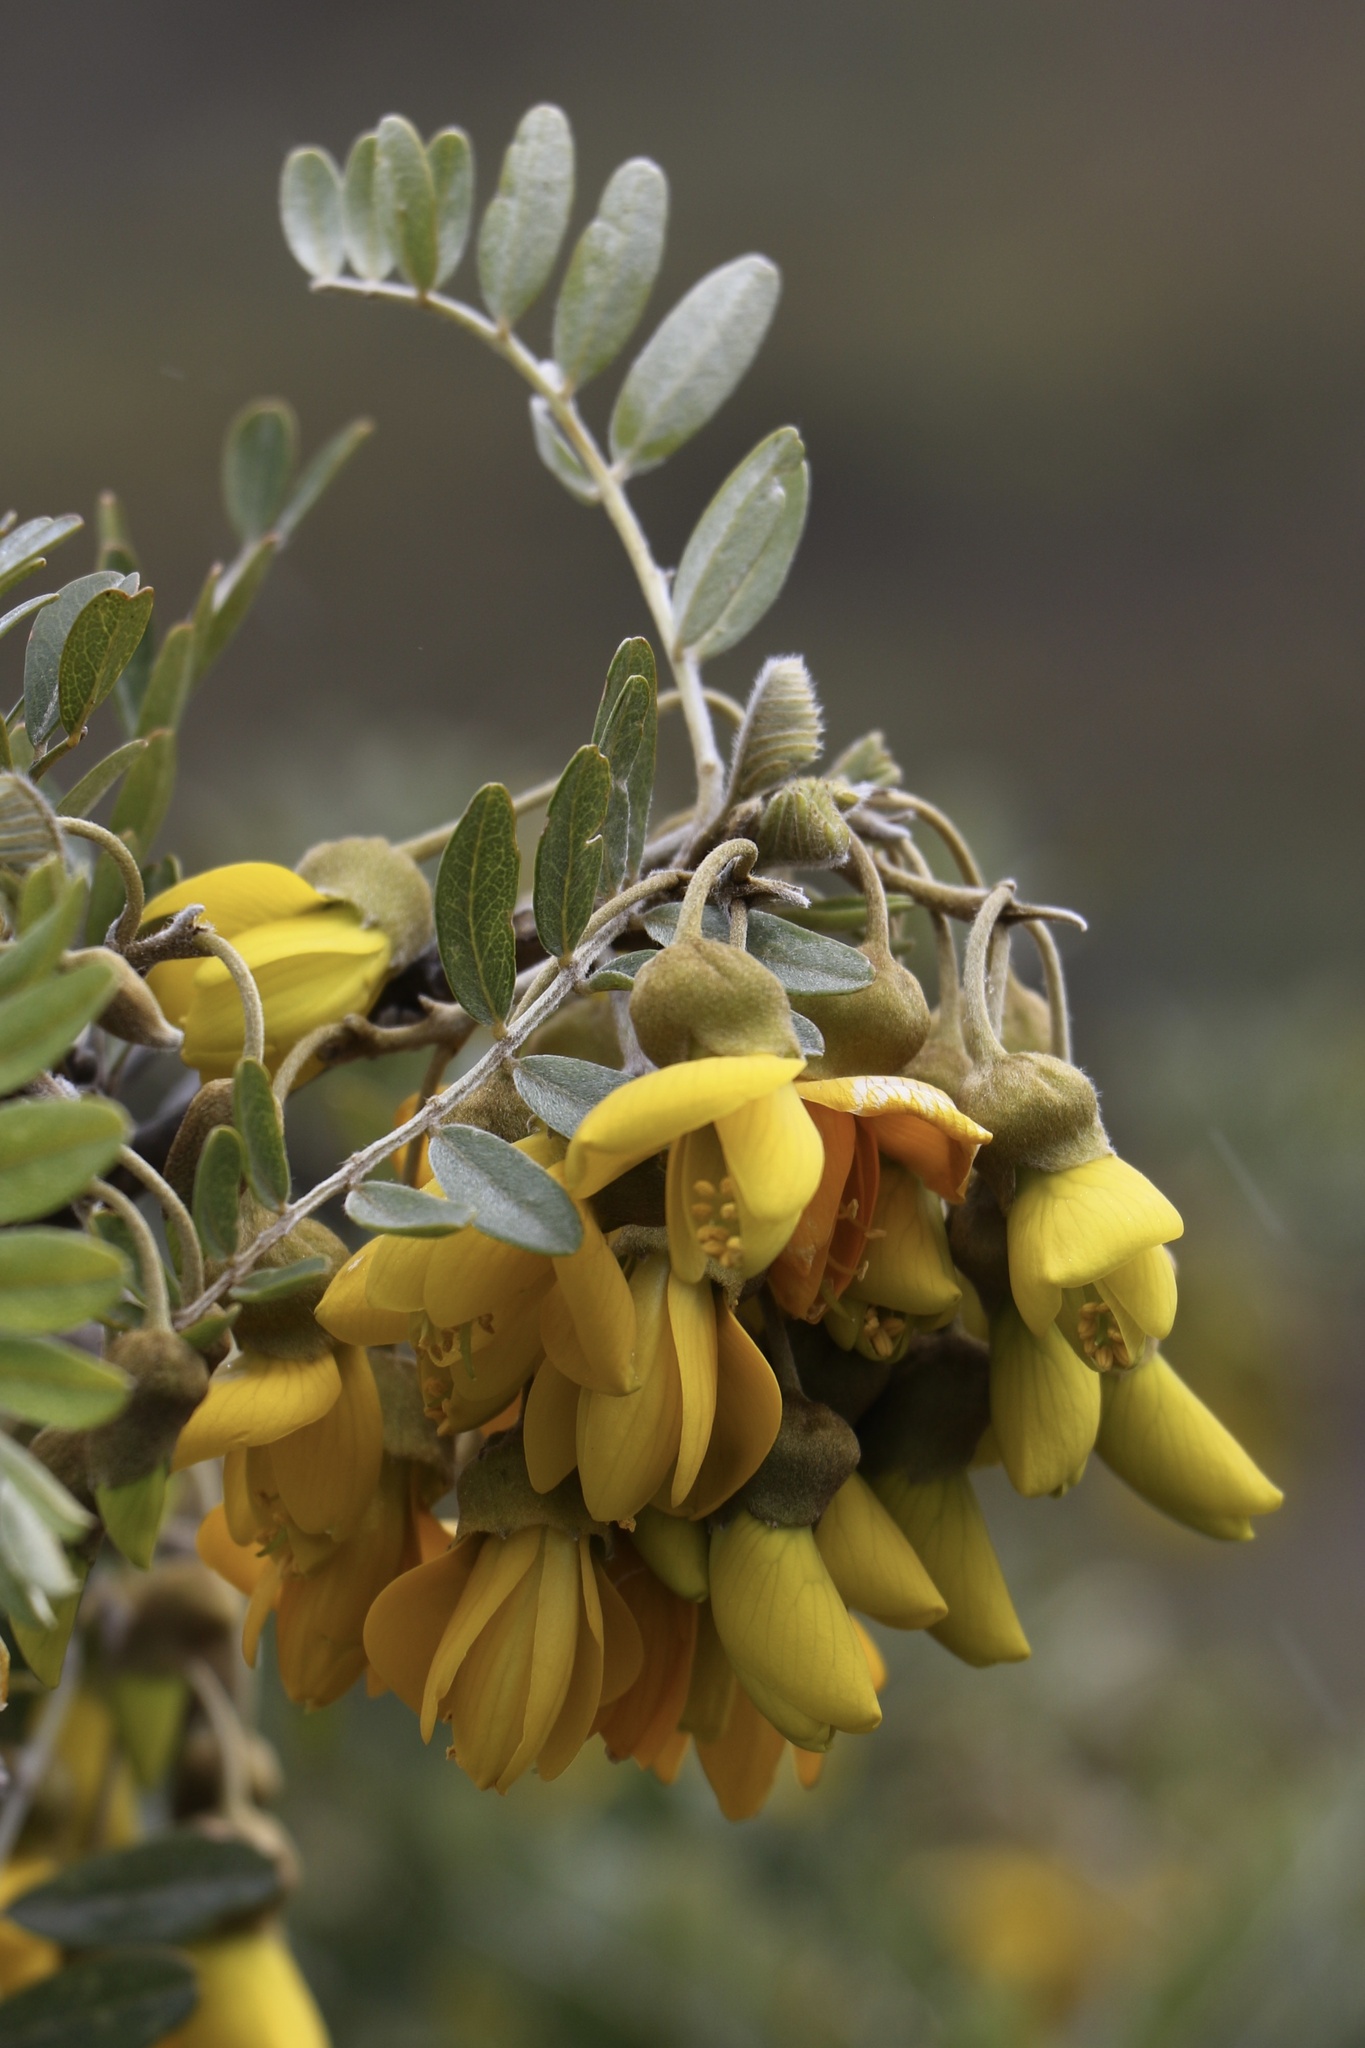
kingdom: Plantae
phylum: Tracheophyta
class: Magnoliopsida
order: Fabales
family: Fabaceae
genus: Sophora
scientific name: Sophora chrysophylla
